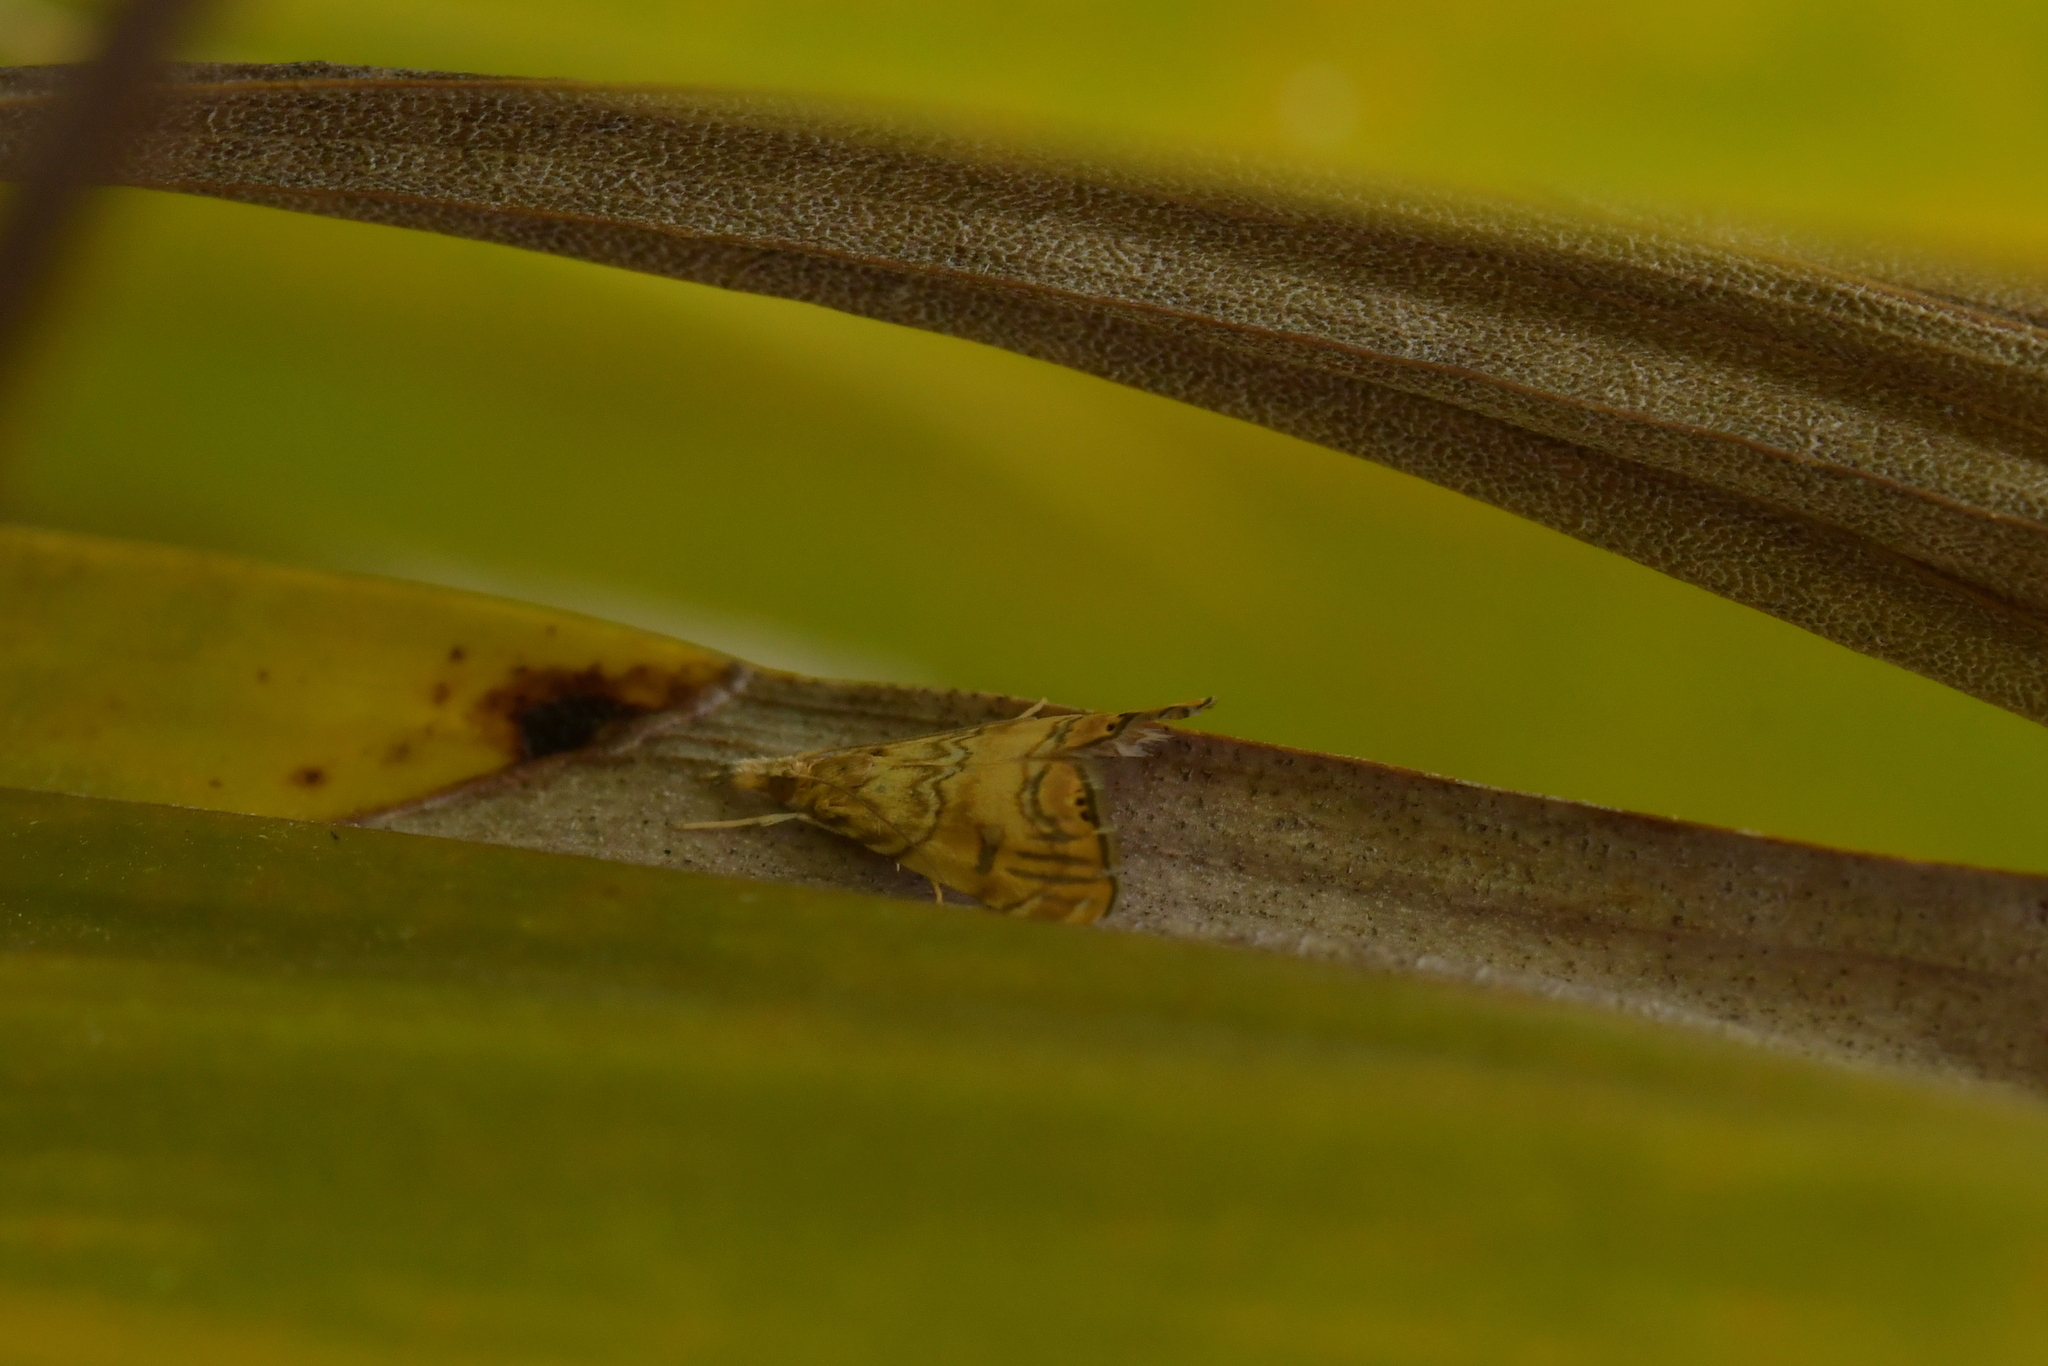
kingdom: Animalia
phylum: Arthropoda
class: Insecta
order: Lepidoptera
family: Crambidae
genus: Glaucocharis
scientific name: Glaucocharis selenaea
